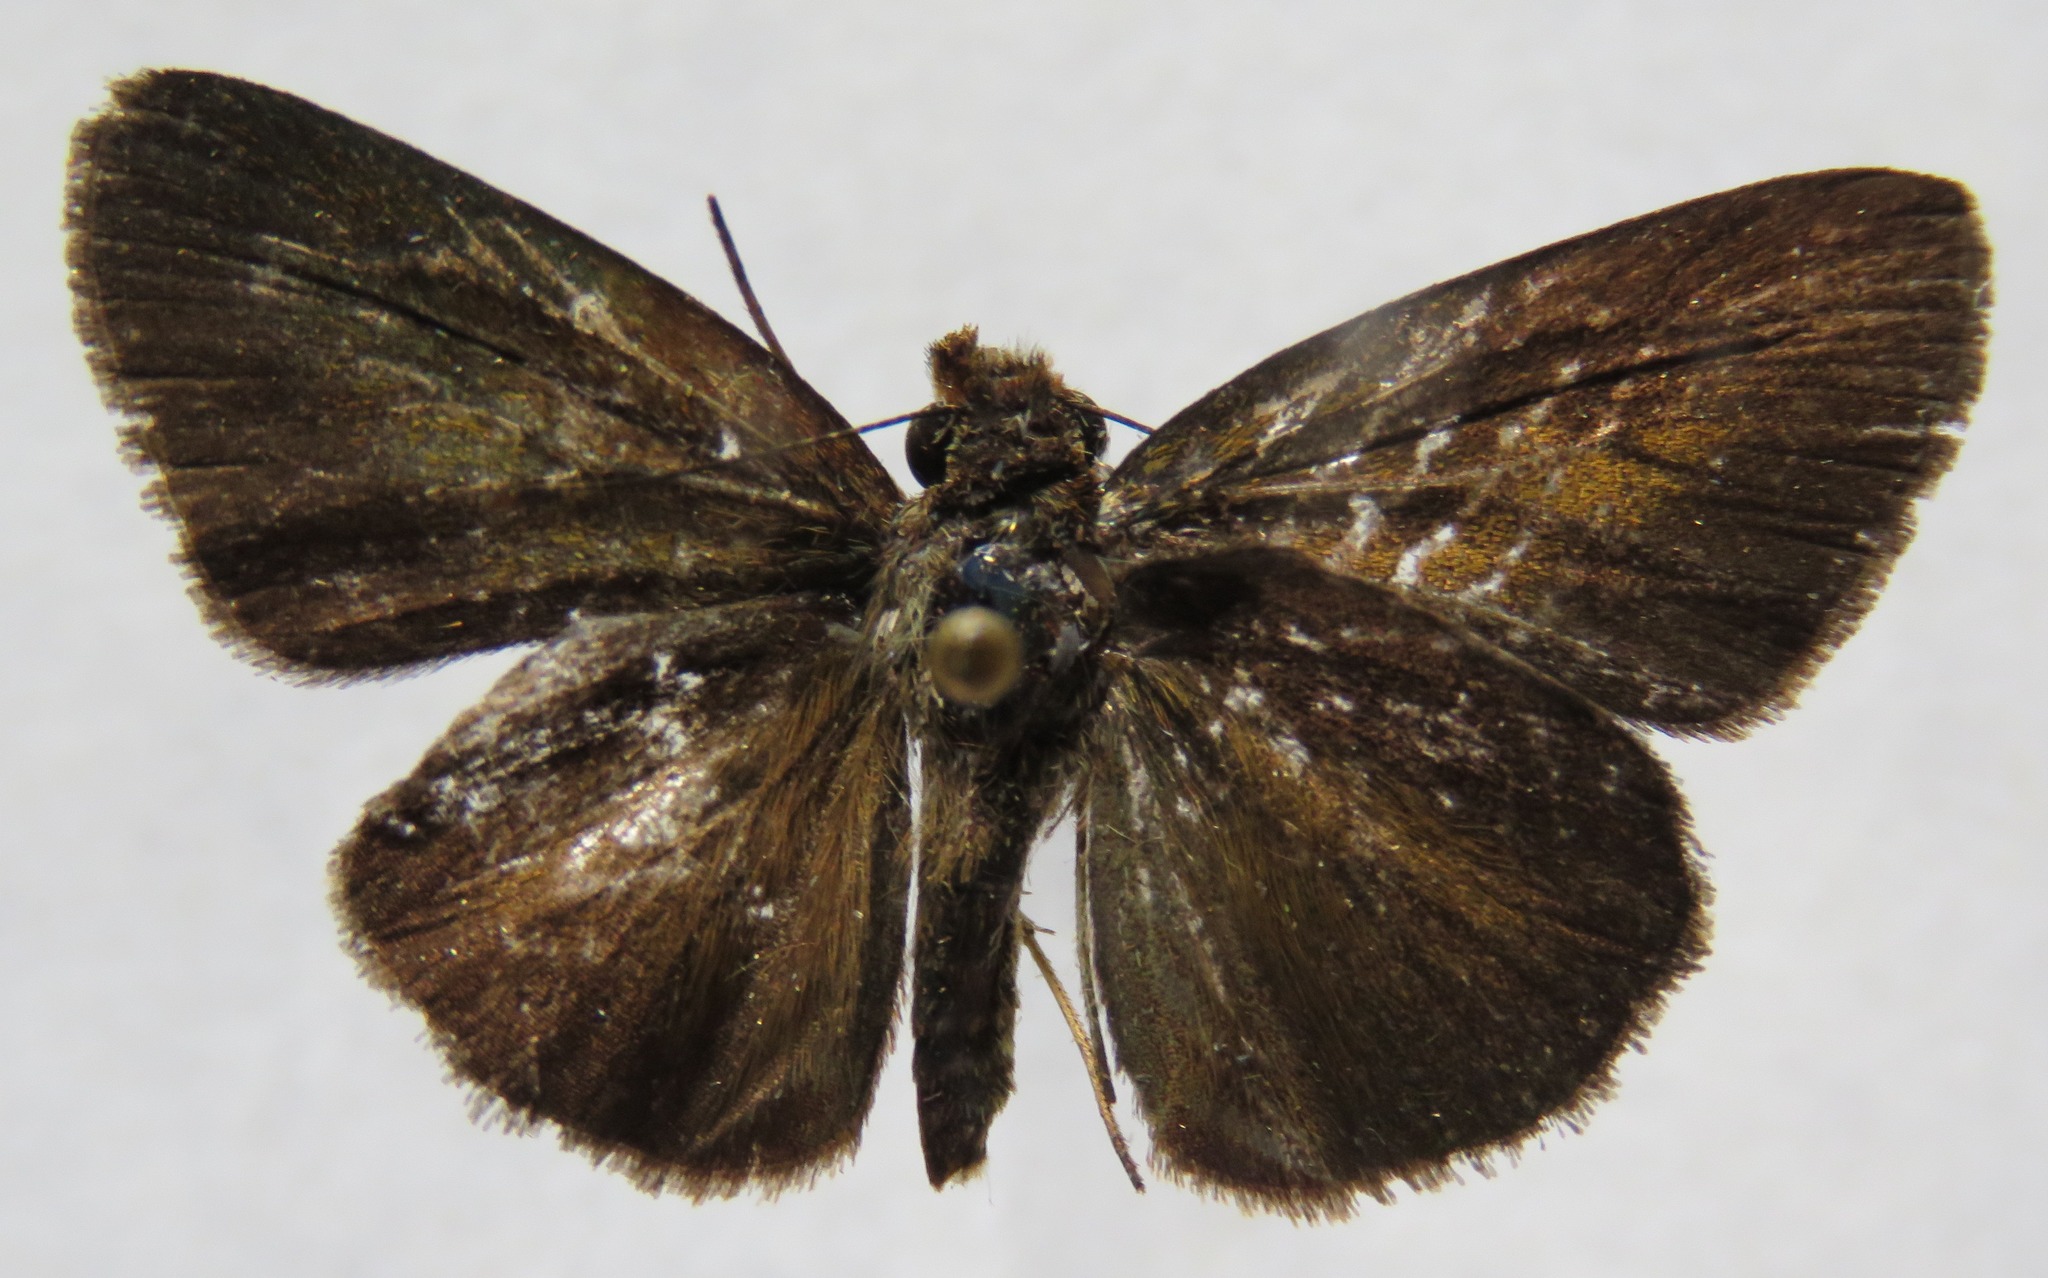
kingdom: Animalia
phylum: Arthropoda
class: Insecta
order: Lepidoptera
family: Hesperiidae
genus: Synapte
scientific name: Synapte salenus
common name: Salenus skipper
